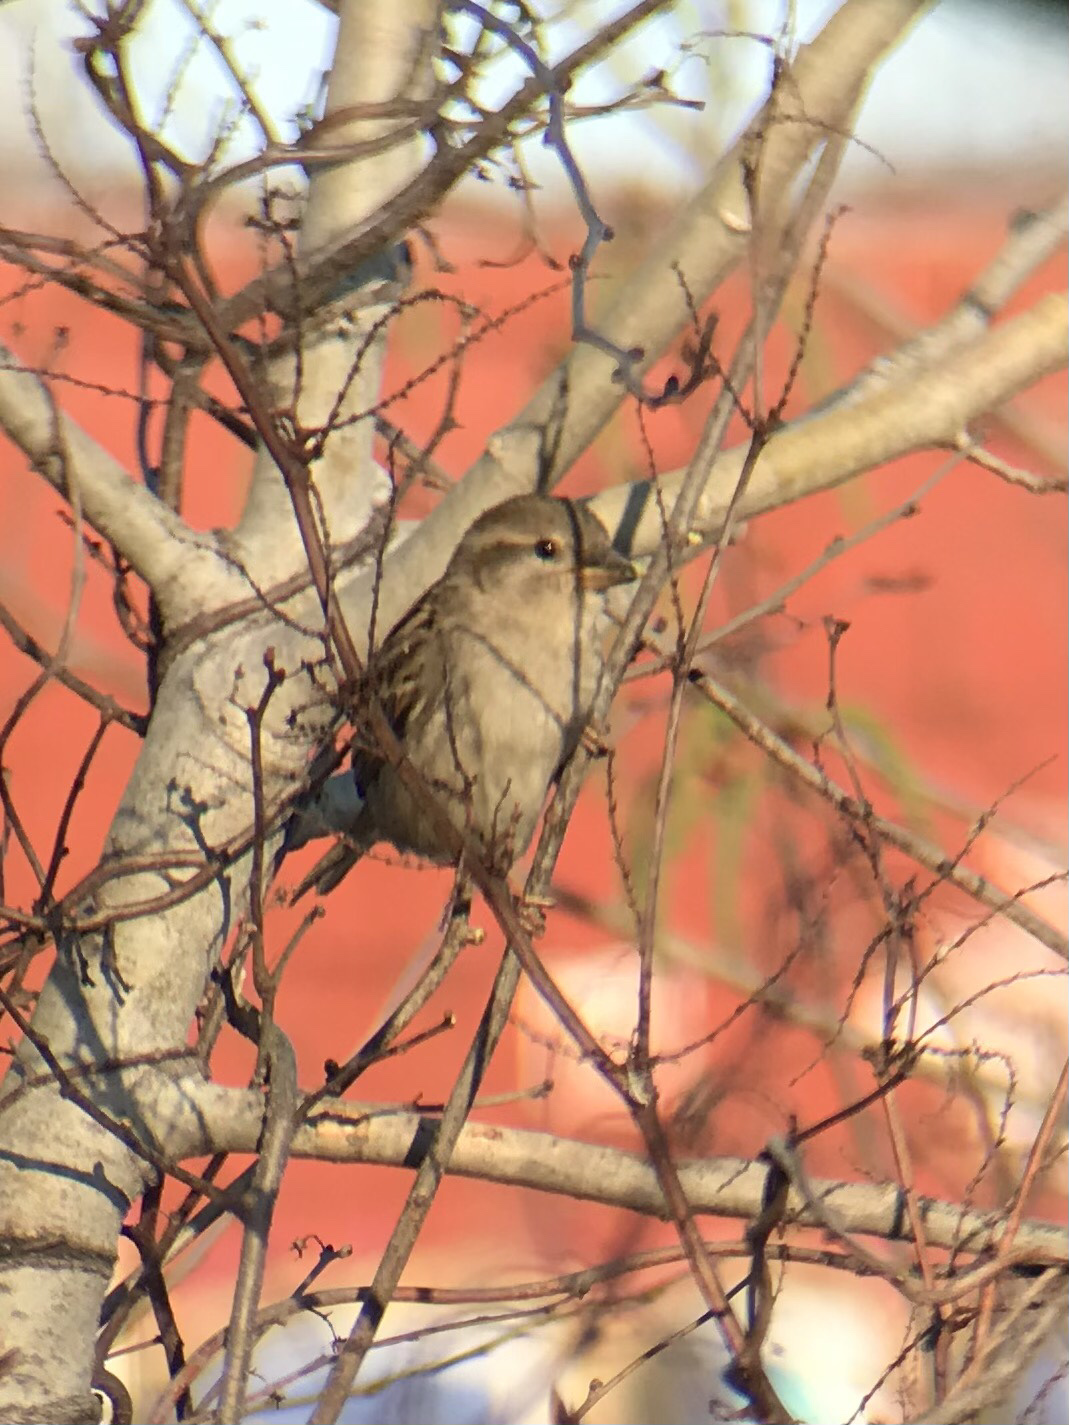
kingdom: Animalia
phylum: Chordata
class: Aves
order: Passeriformes
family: Passeridae
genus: Passer
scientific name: Passer domesticus
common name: House sparrow
